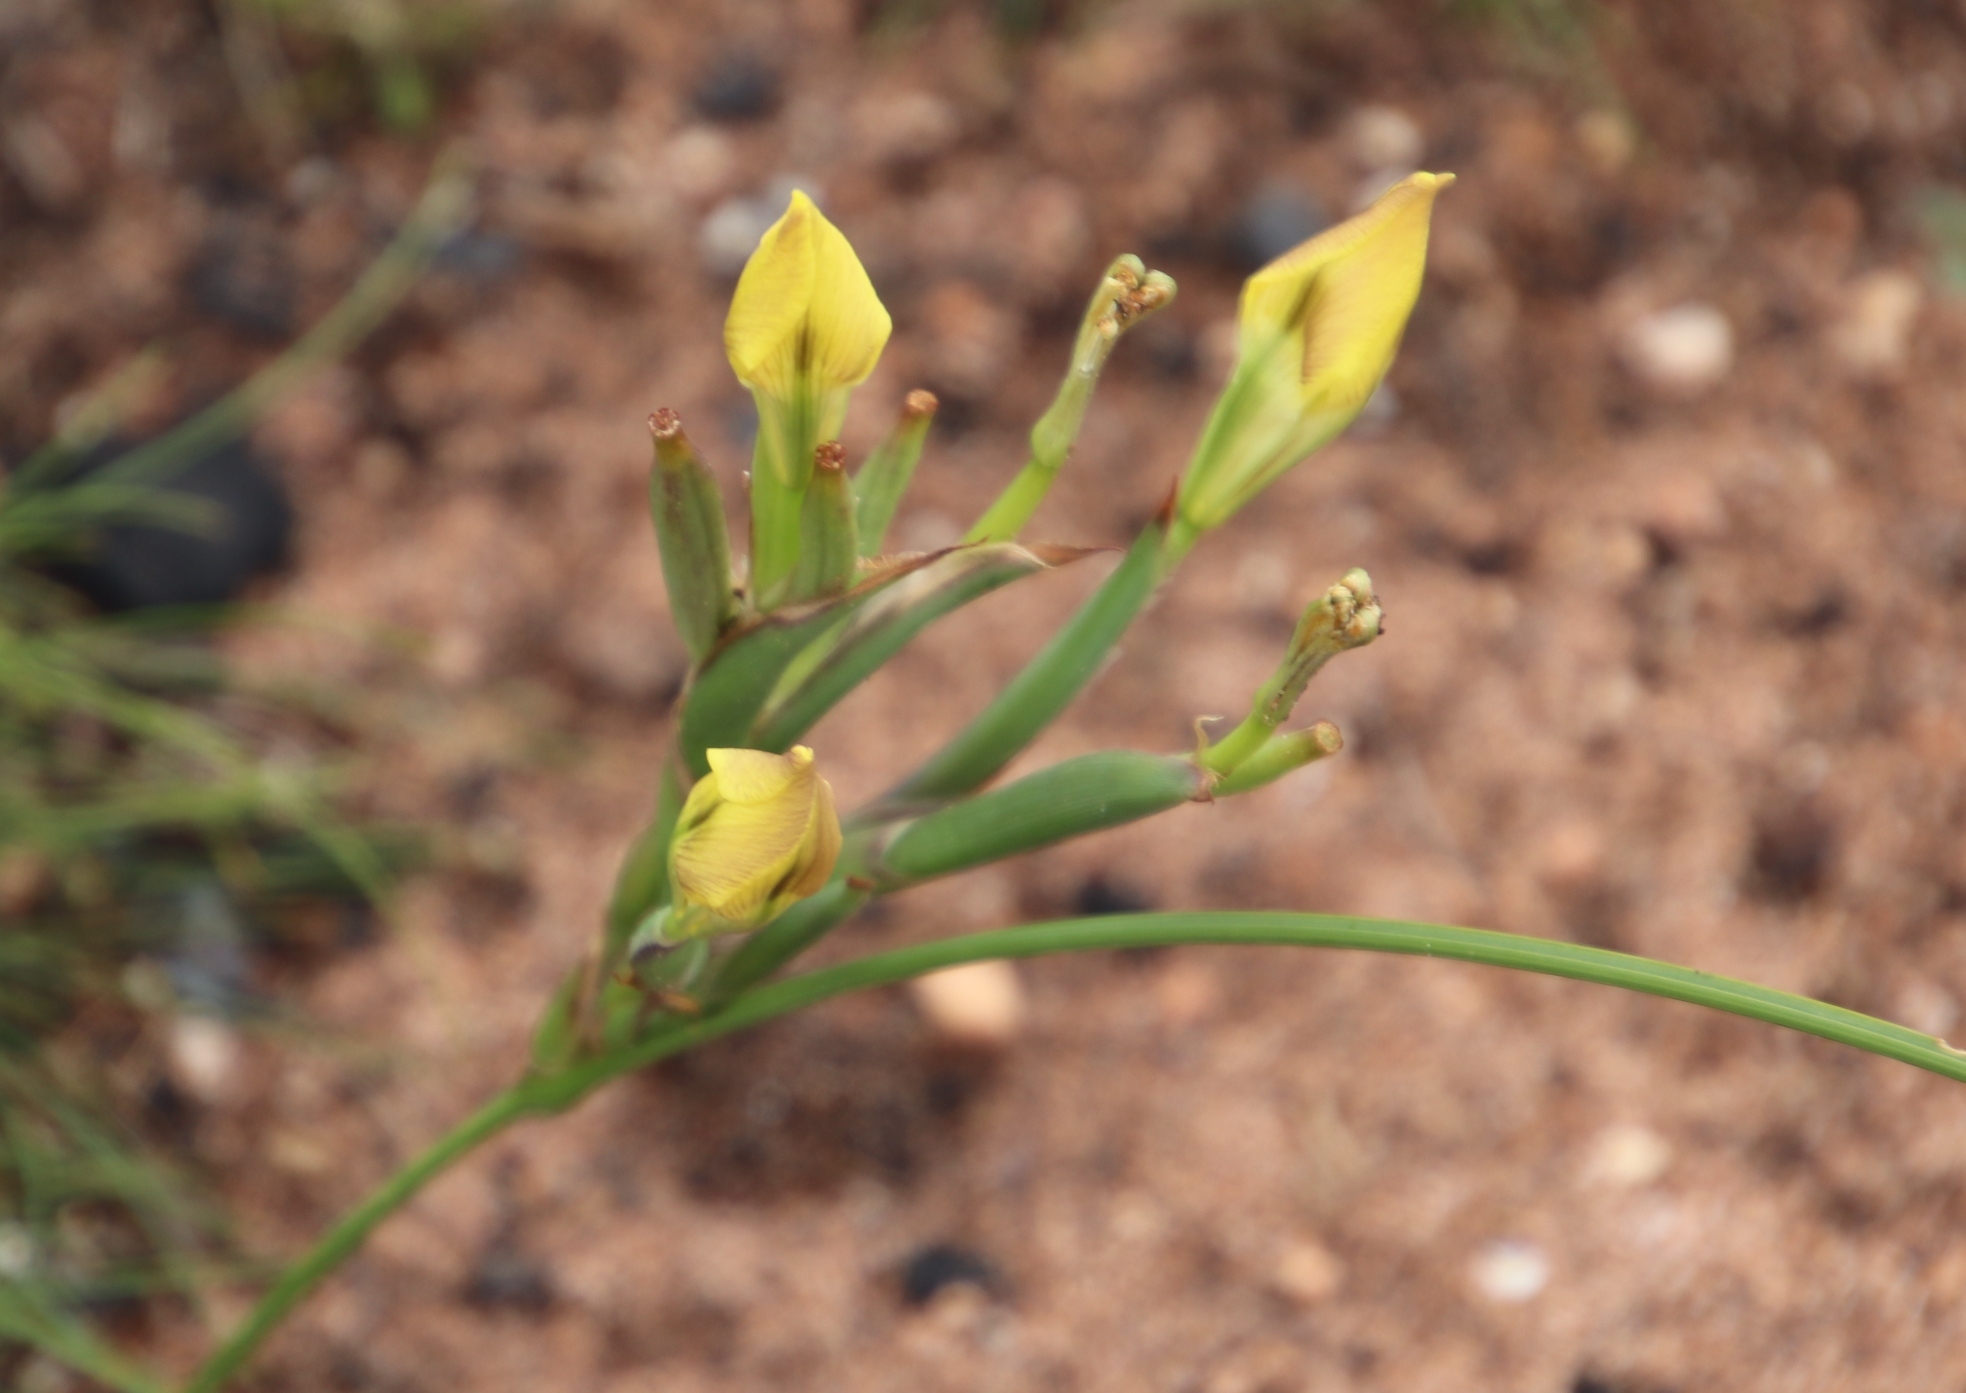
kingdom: Plantae
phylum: Tracheophyta
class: Liliopsida
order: Asparagales
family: Iridaceae
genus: Moraea
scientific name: Moraea fugax
